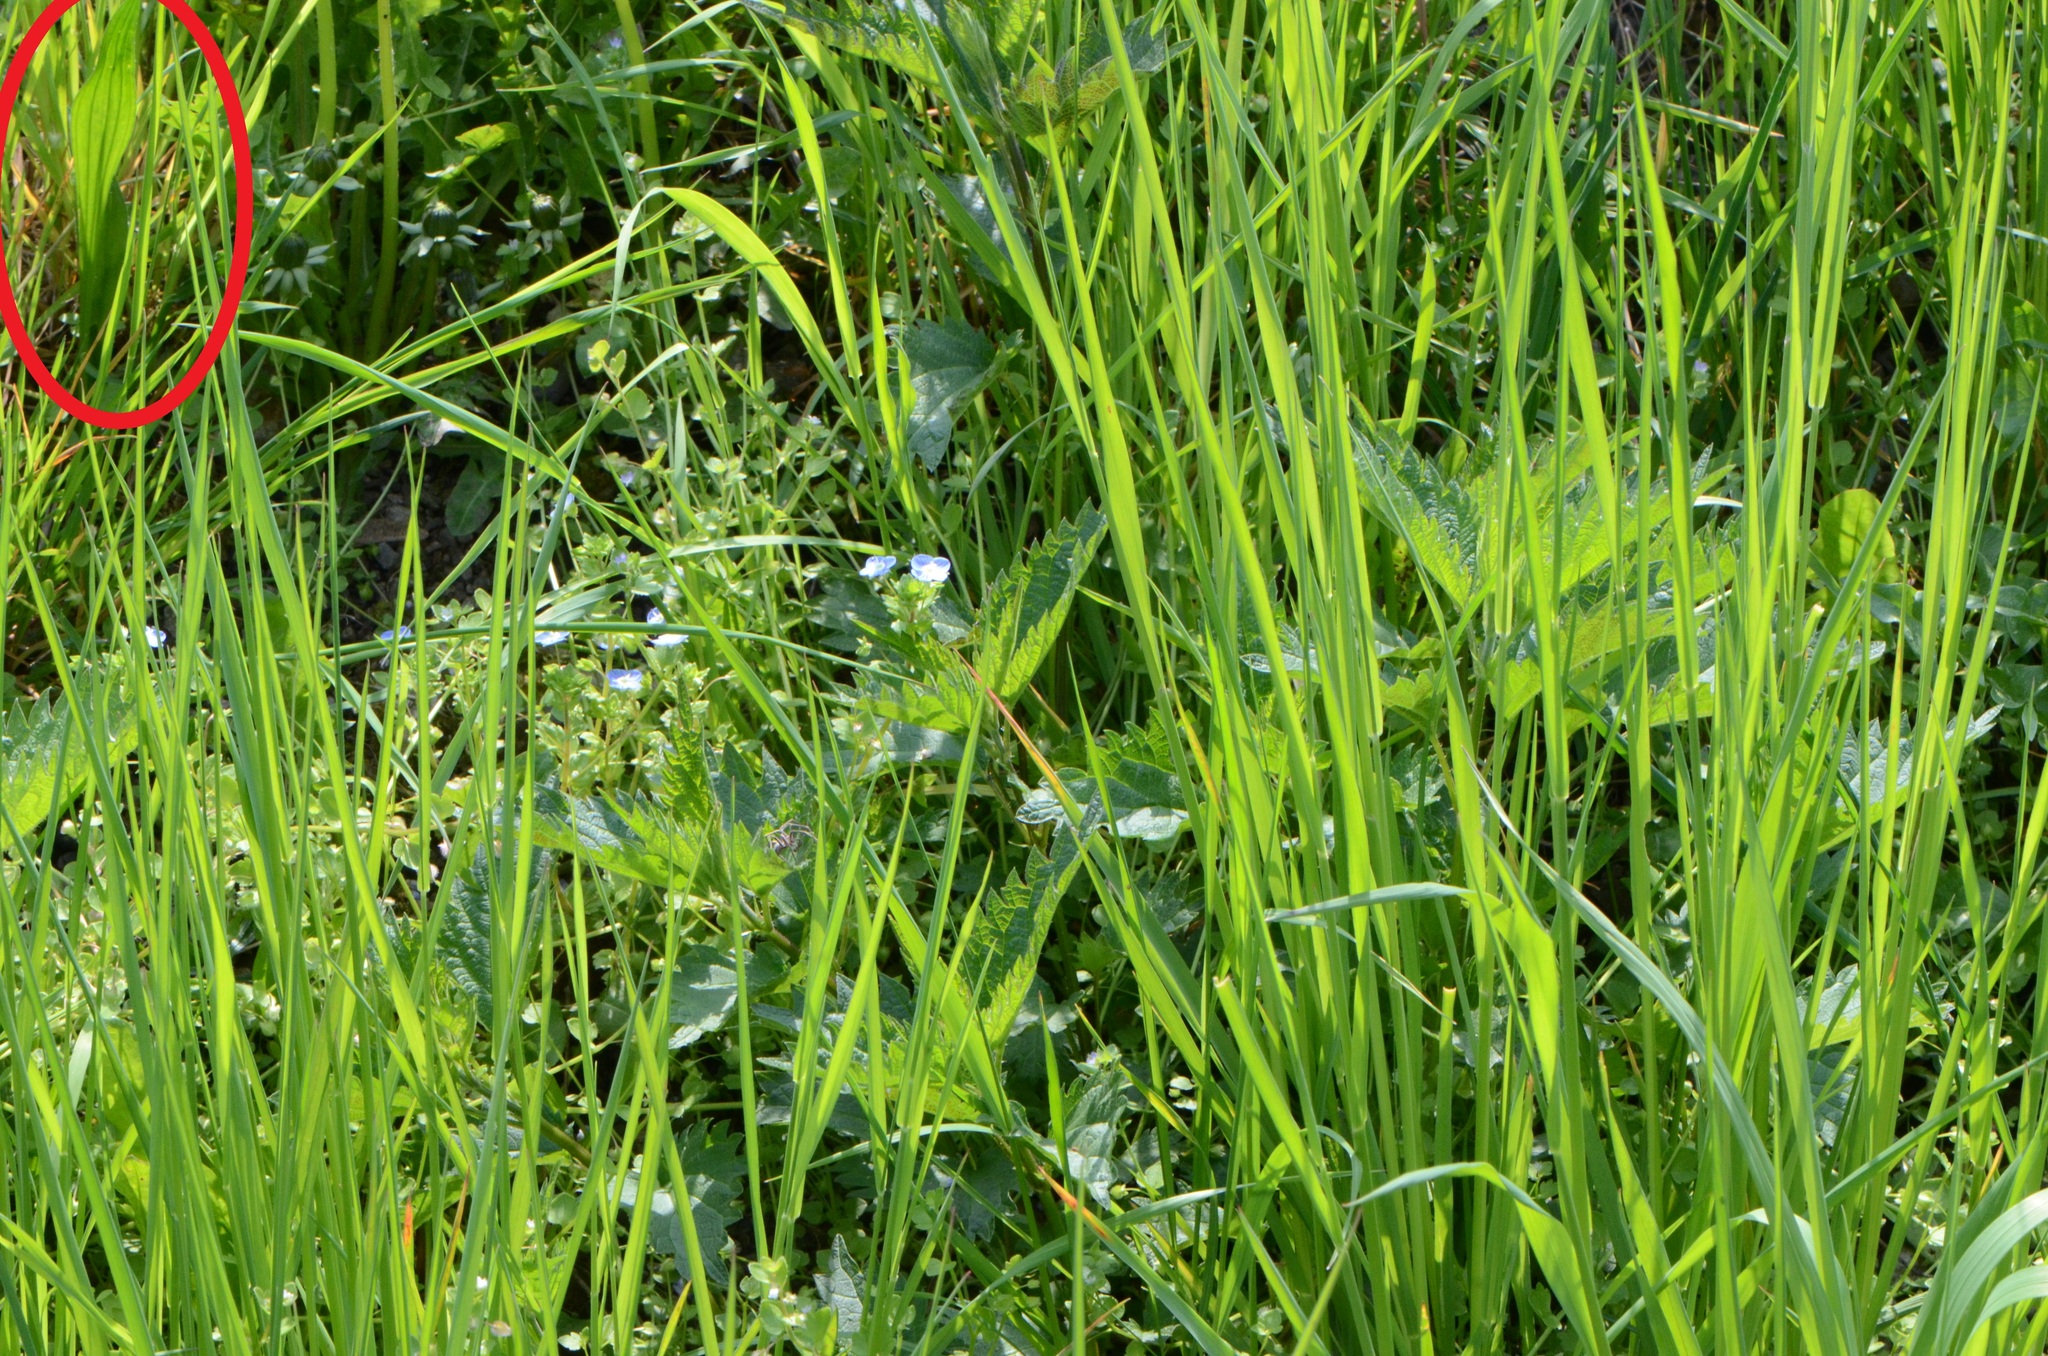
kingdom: Plantae
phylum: Tracheophyta
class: Magnoliopsida
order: Lamiales
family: Plantaginaceae
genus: Plantago
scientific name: Plantago lanceolata
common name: Ribwort plantain
